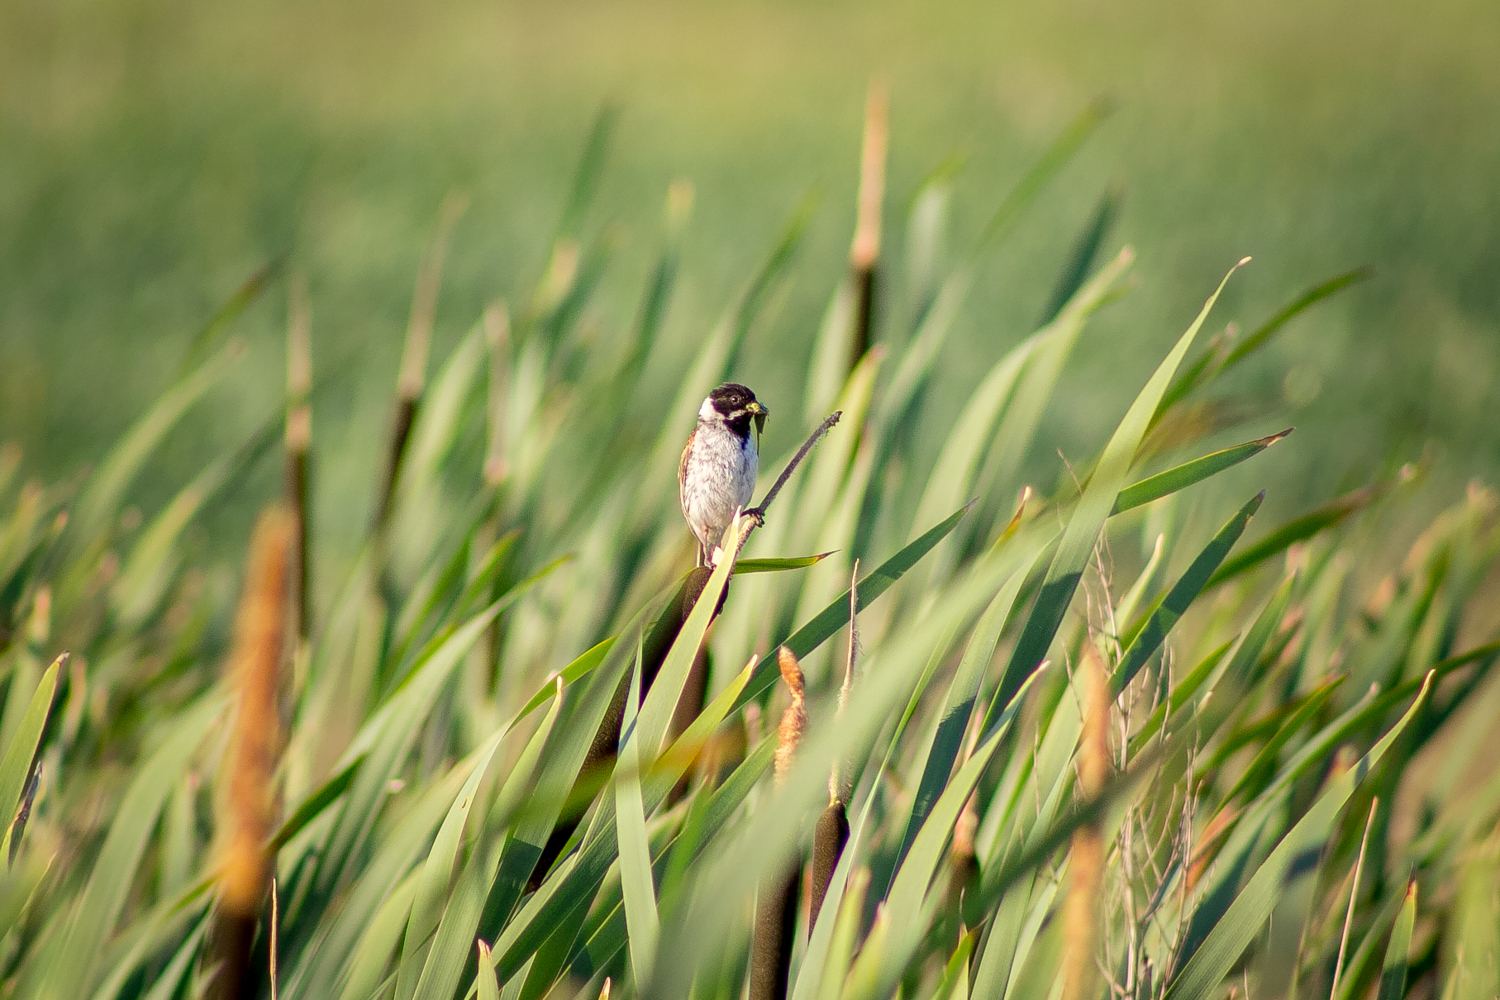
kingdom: Animalia
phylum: Chordata
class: Aves
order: Passeriformes
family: Emberizidae
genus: Emberiza
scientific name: Emberiza schoeniclus
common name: Reed bunting
